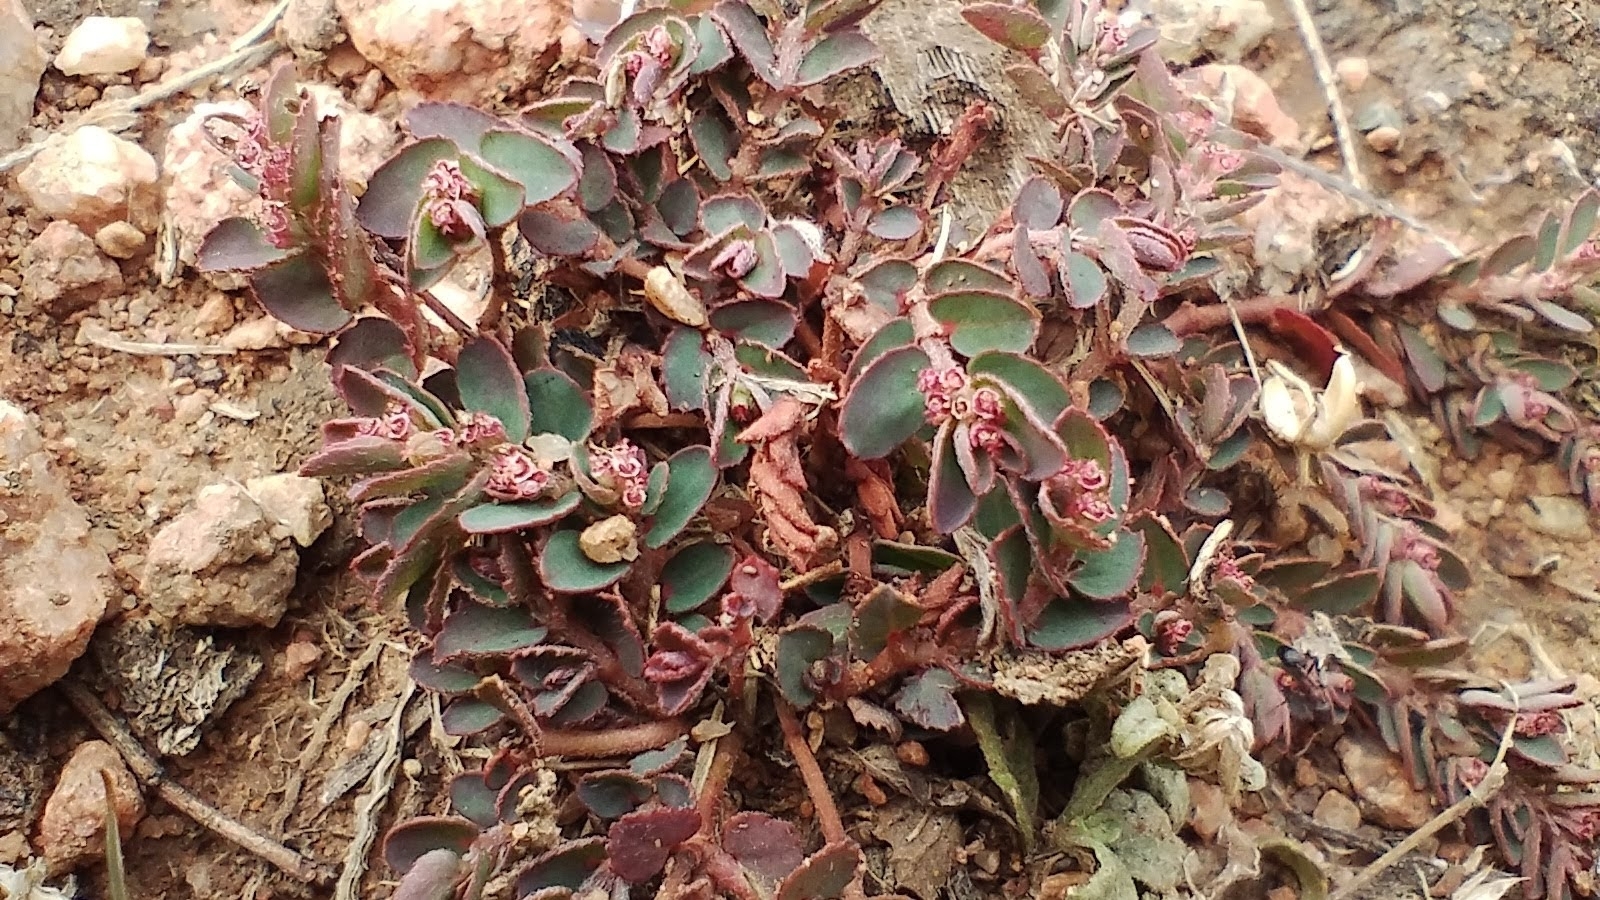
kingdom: Plantae
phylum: Tracheophyta
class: Magnoliopsida
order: Malpighiales
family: Euphorbiaceae
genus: Euphorbia
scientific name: Euphorbia thymifolia
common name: Gulf sandmat
